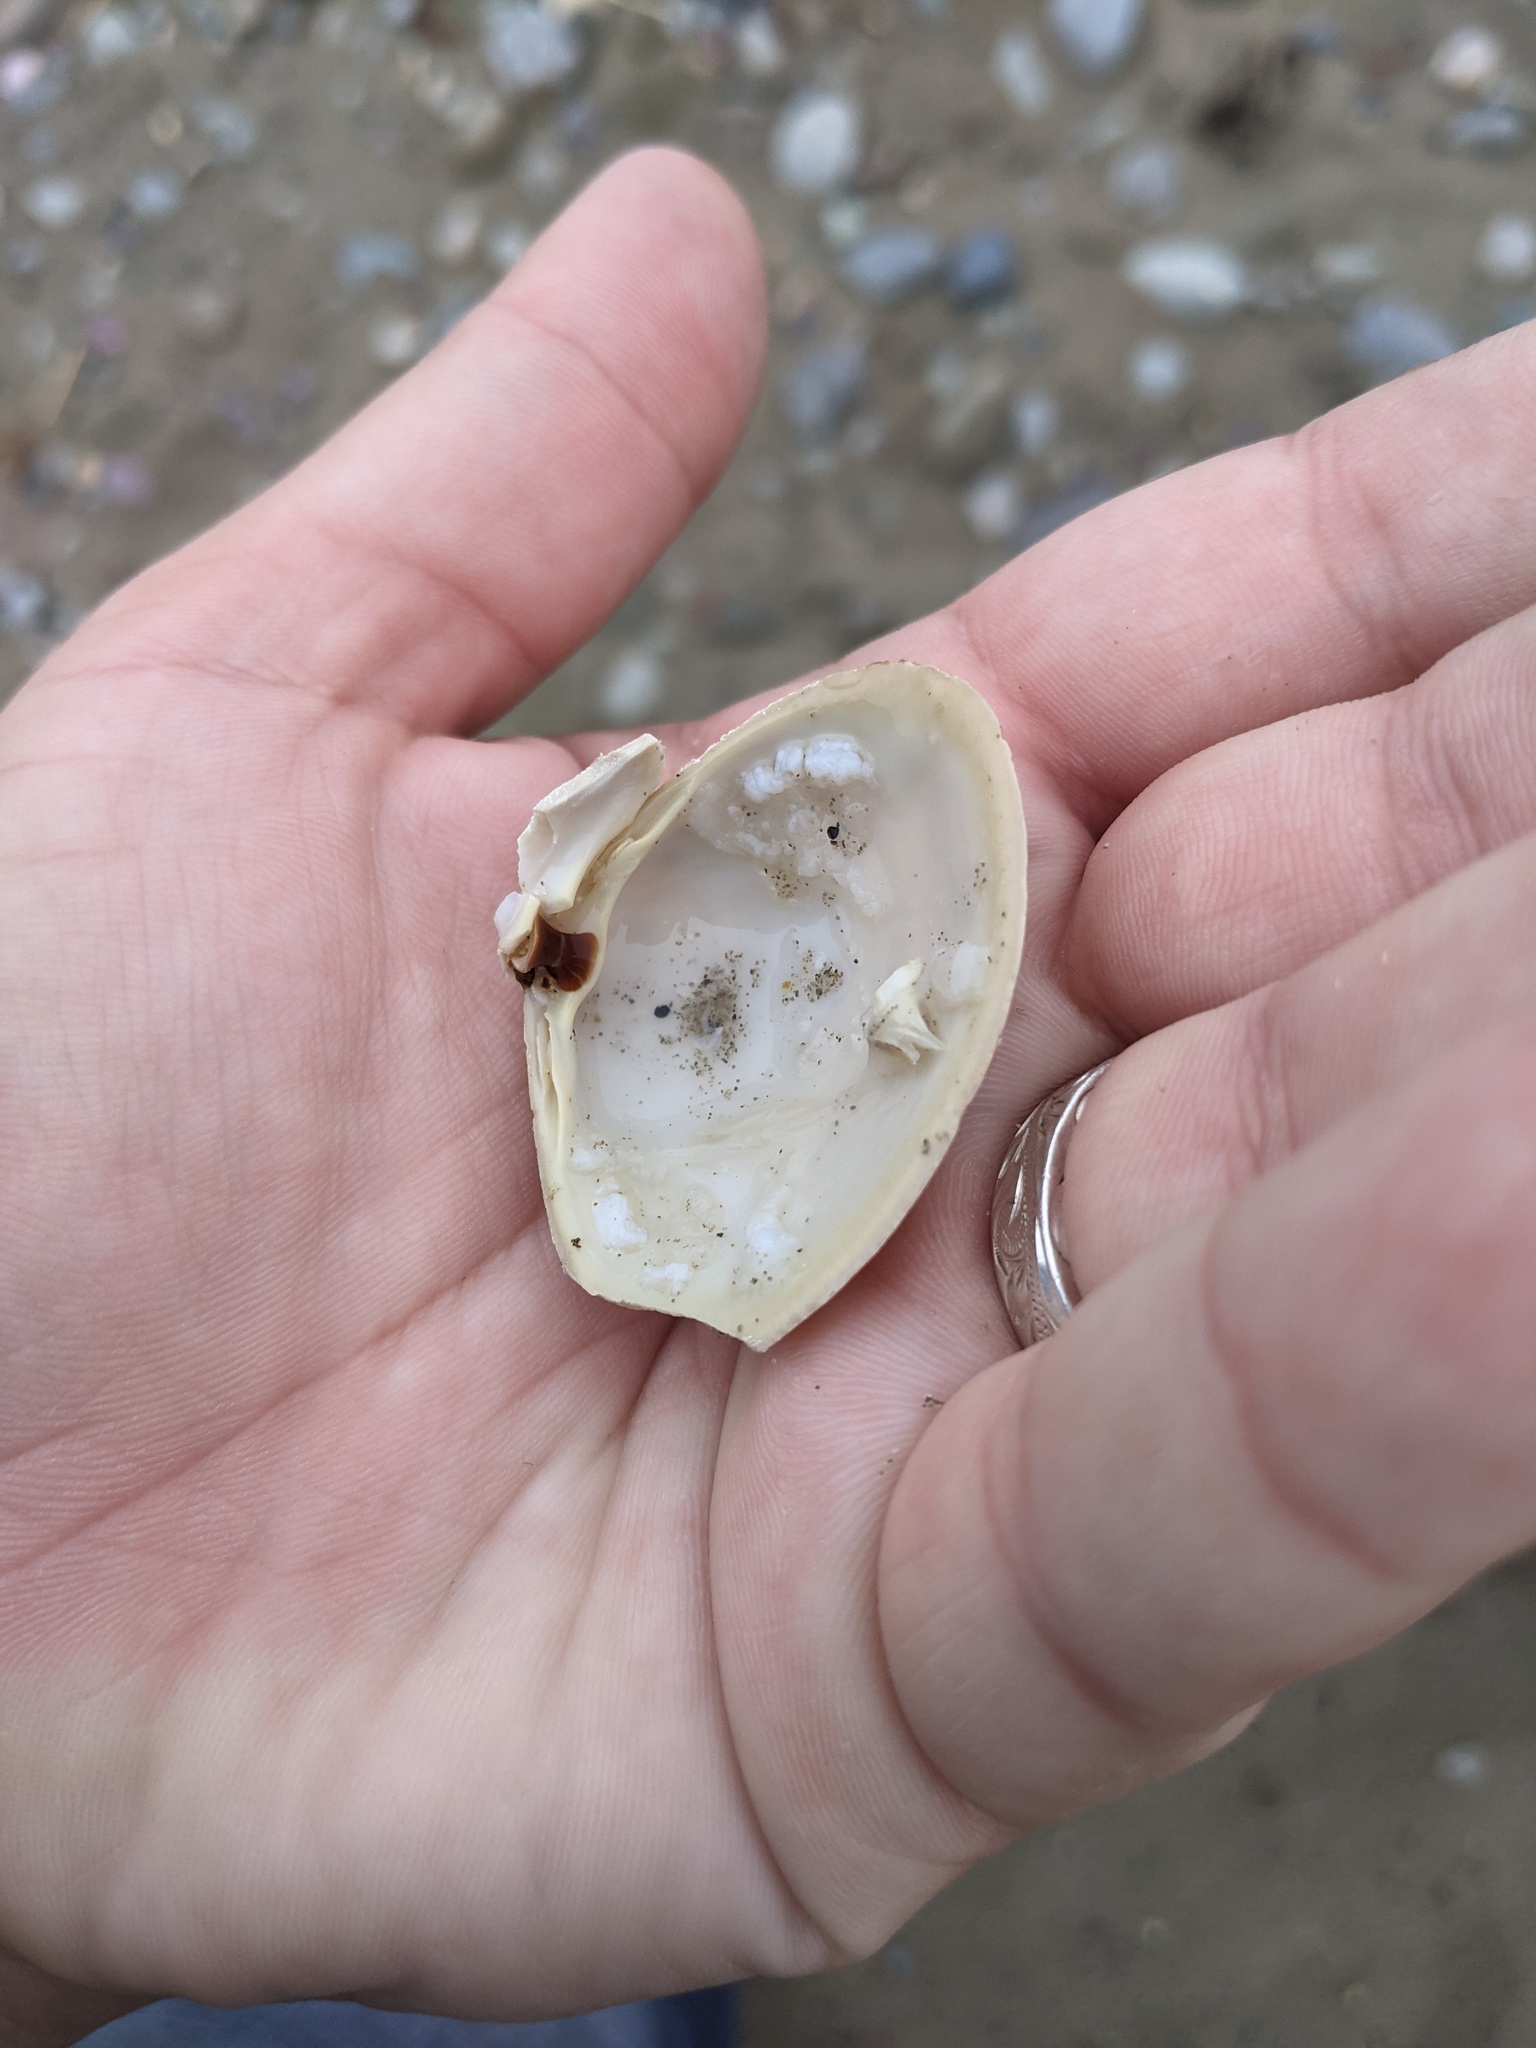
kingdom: Animalia
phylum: Mollusca
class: Bivalvia
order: Venerida
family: Mactridae
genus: Spisula
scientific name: Spisula solidissima
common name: Atlantic surf clam
